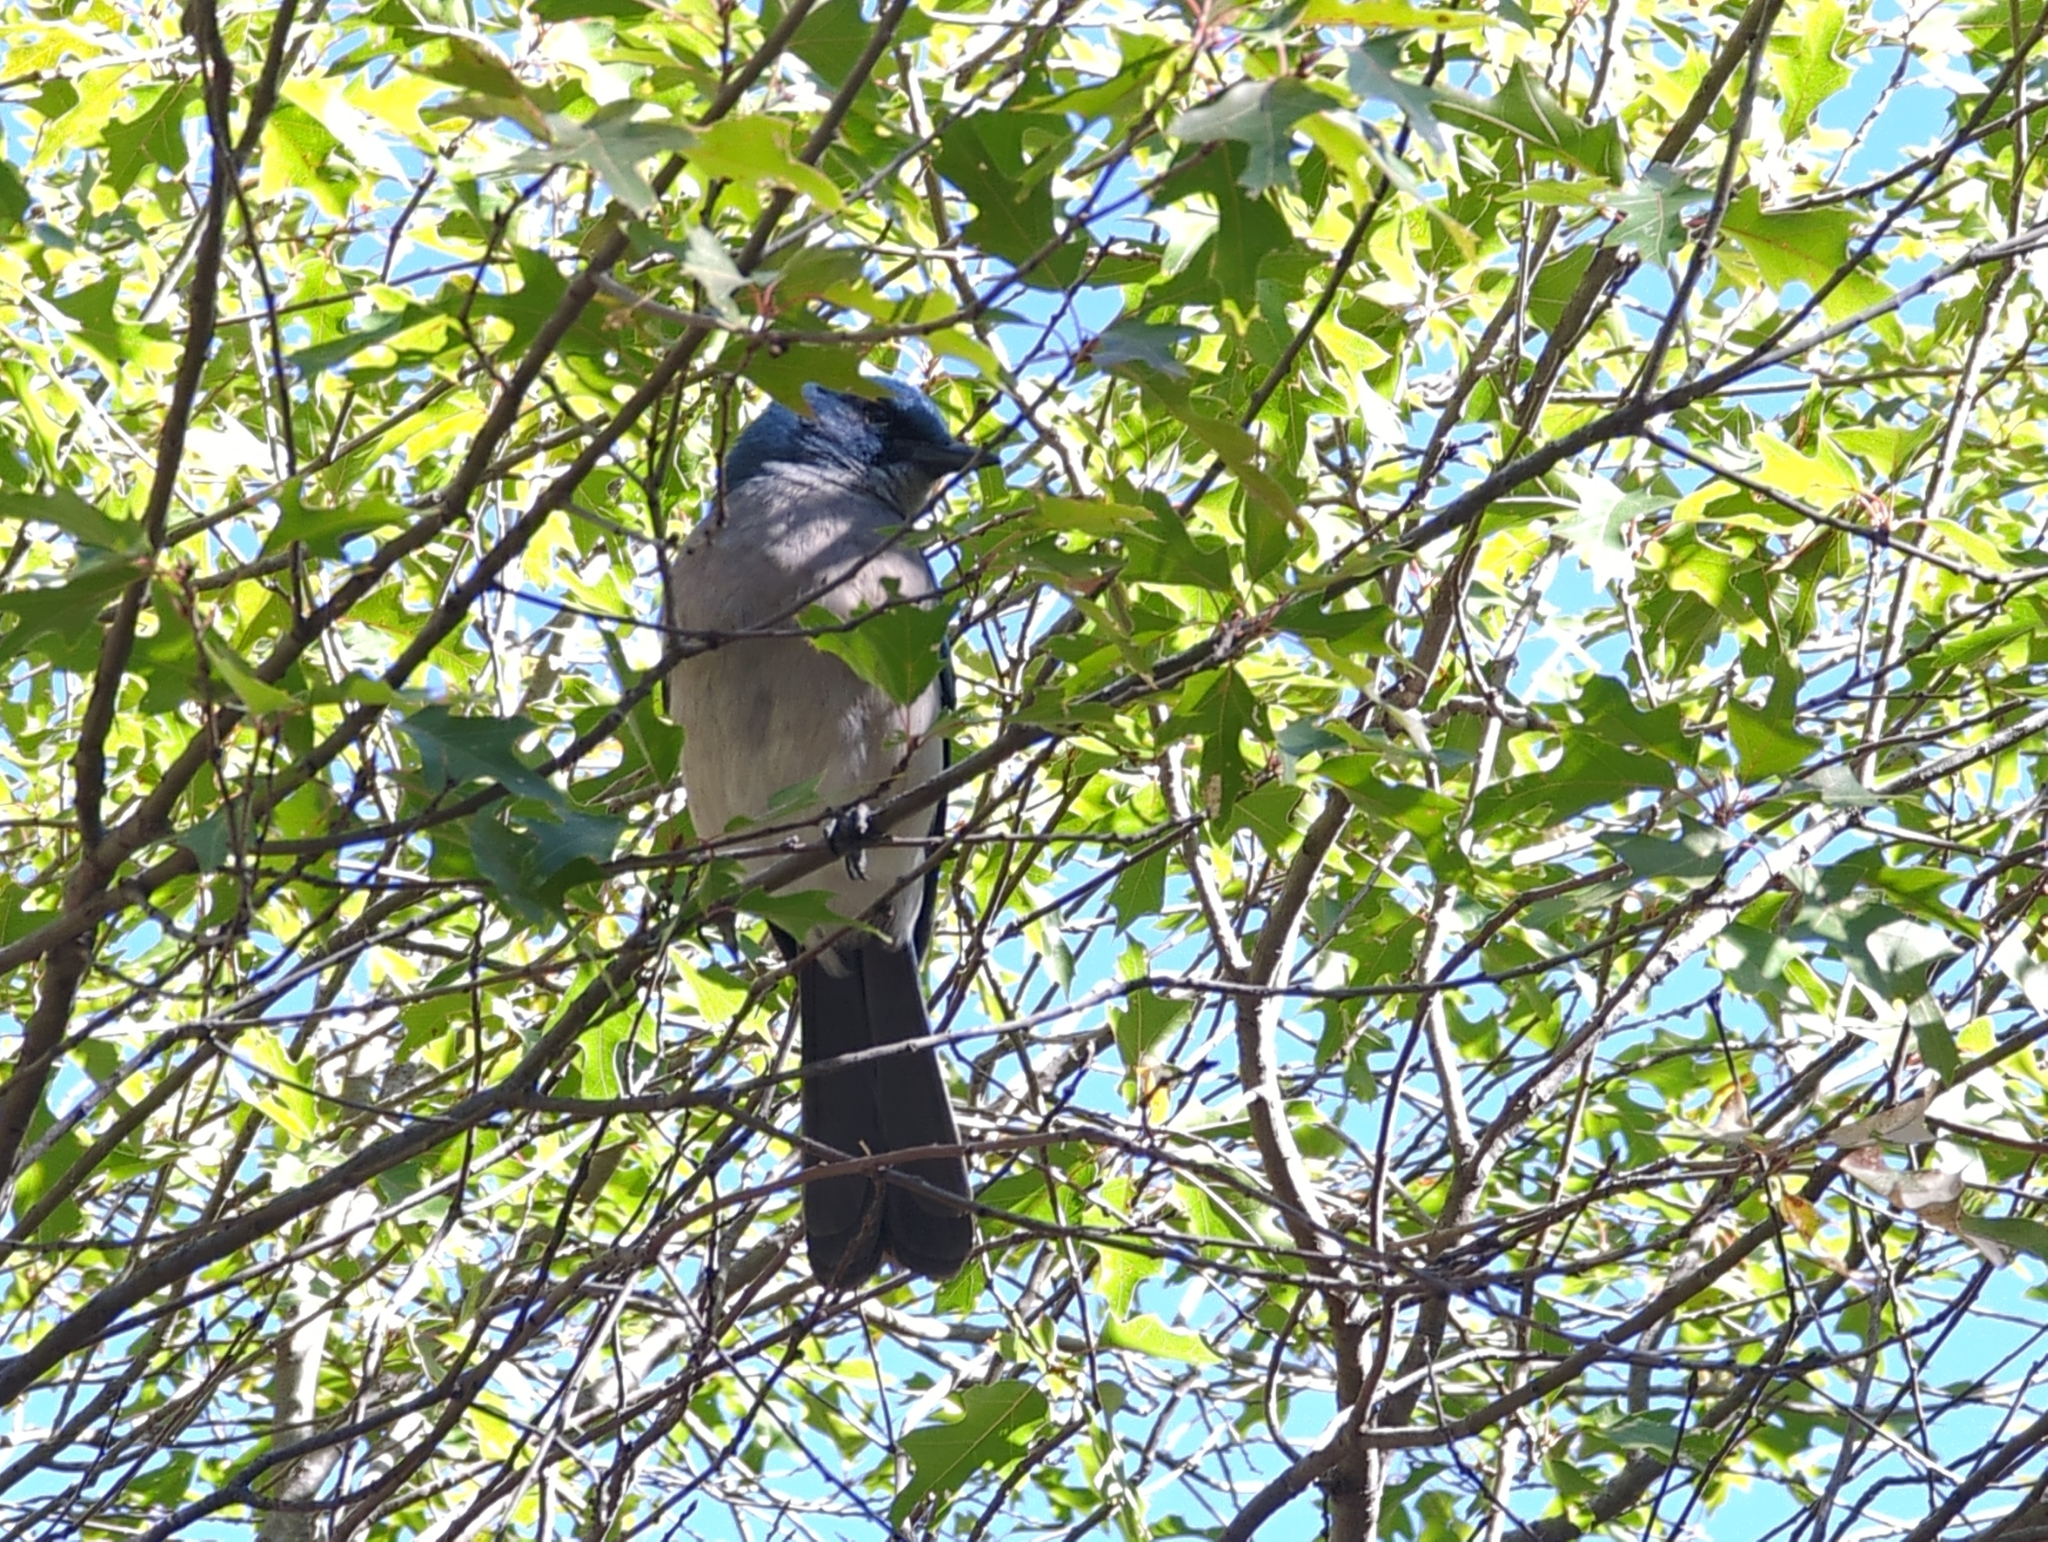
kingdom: Animalia
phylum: Chordata
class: Aves
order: Passeriformes
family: Corvidae
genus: Aphelocoma
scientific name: Aphelocoma wollweberi
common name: Mexican jay
